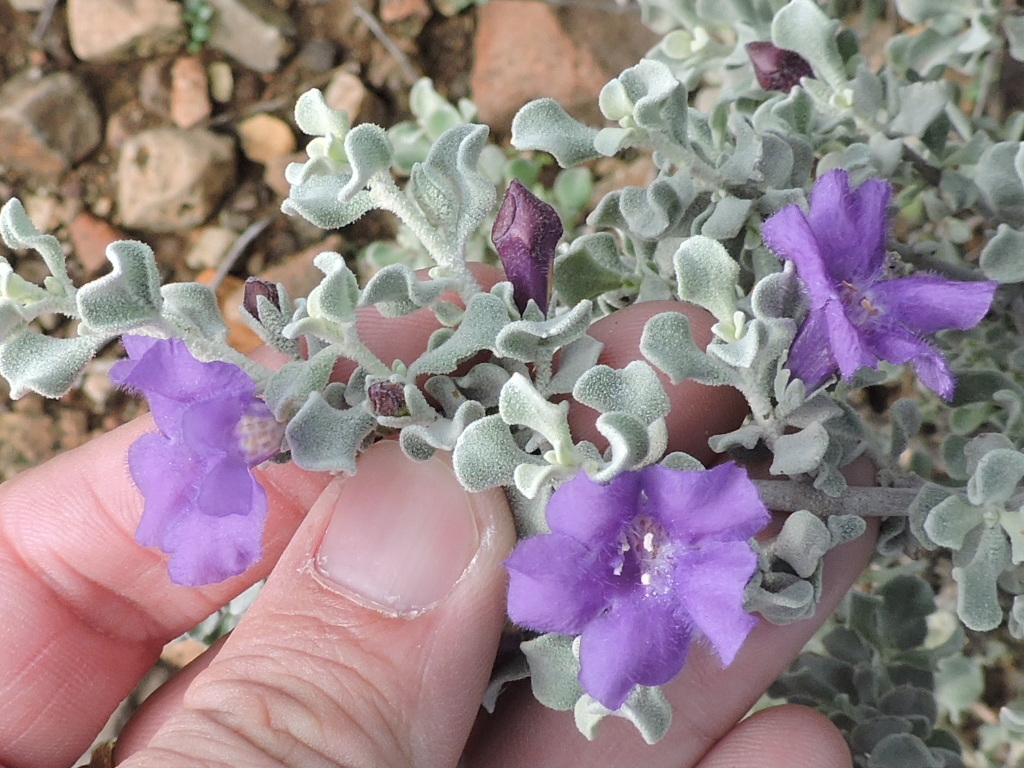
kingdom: Plantae
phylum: Tracheophyta
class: Magnoliopsida
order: Lamiales
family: Scrophulariaceae
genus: Leucophyllum
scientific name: Leucophyllum candidum
